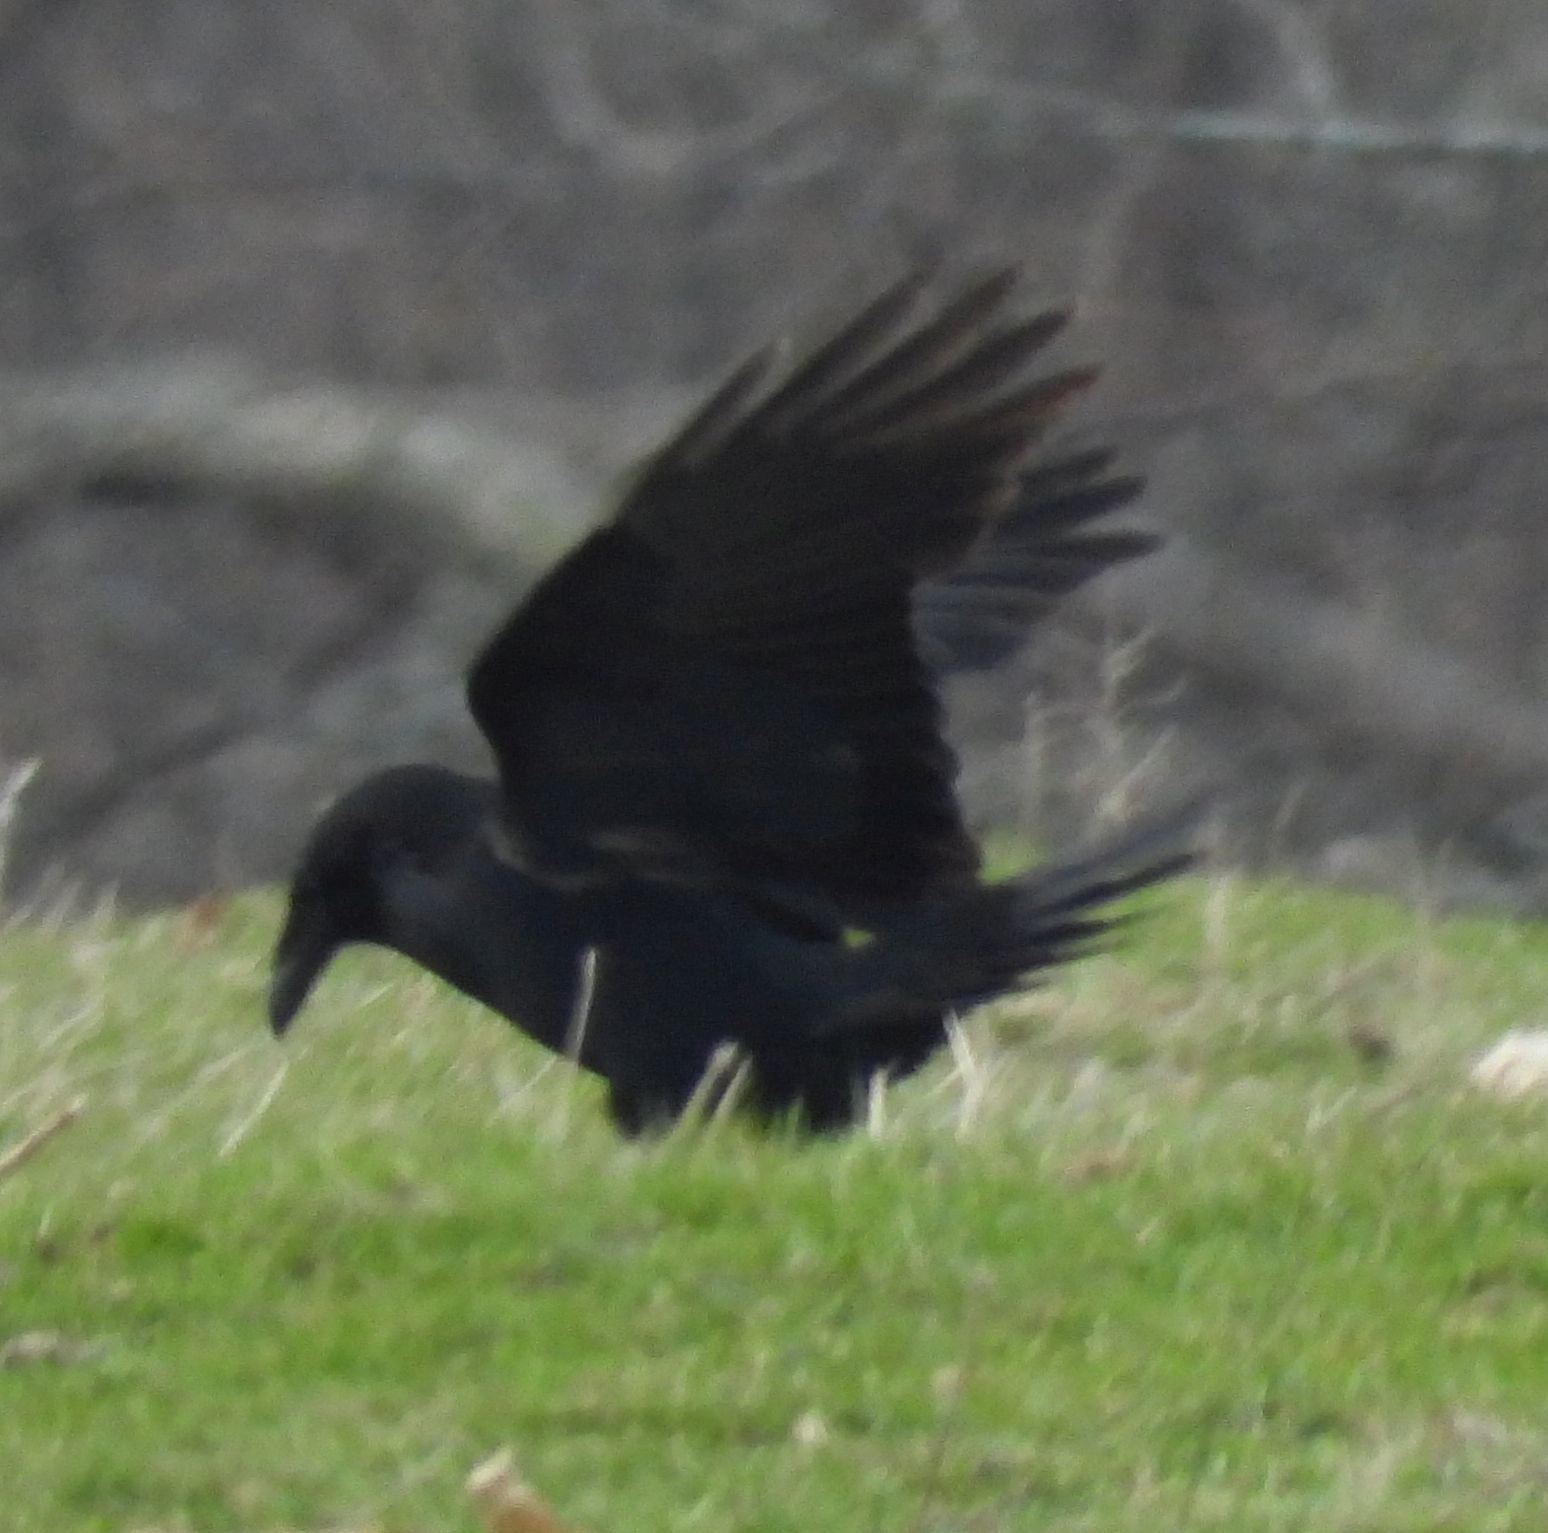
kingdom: Animalia
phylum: Chordata
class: Aves
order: Passeriformes
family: Corvidae
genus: Corvus
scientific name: Corvus corax
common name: Common raven
